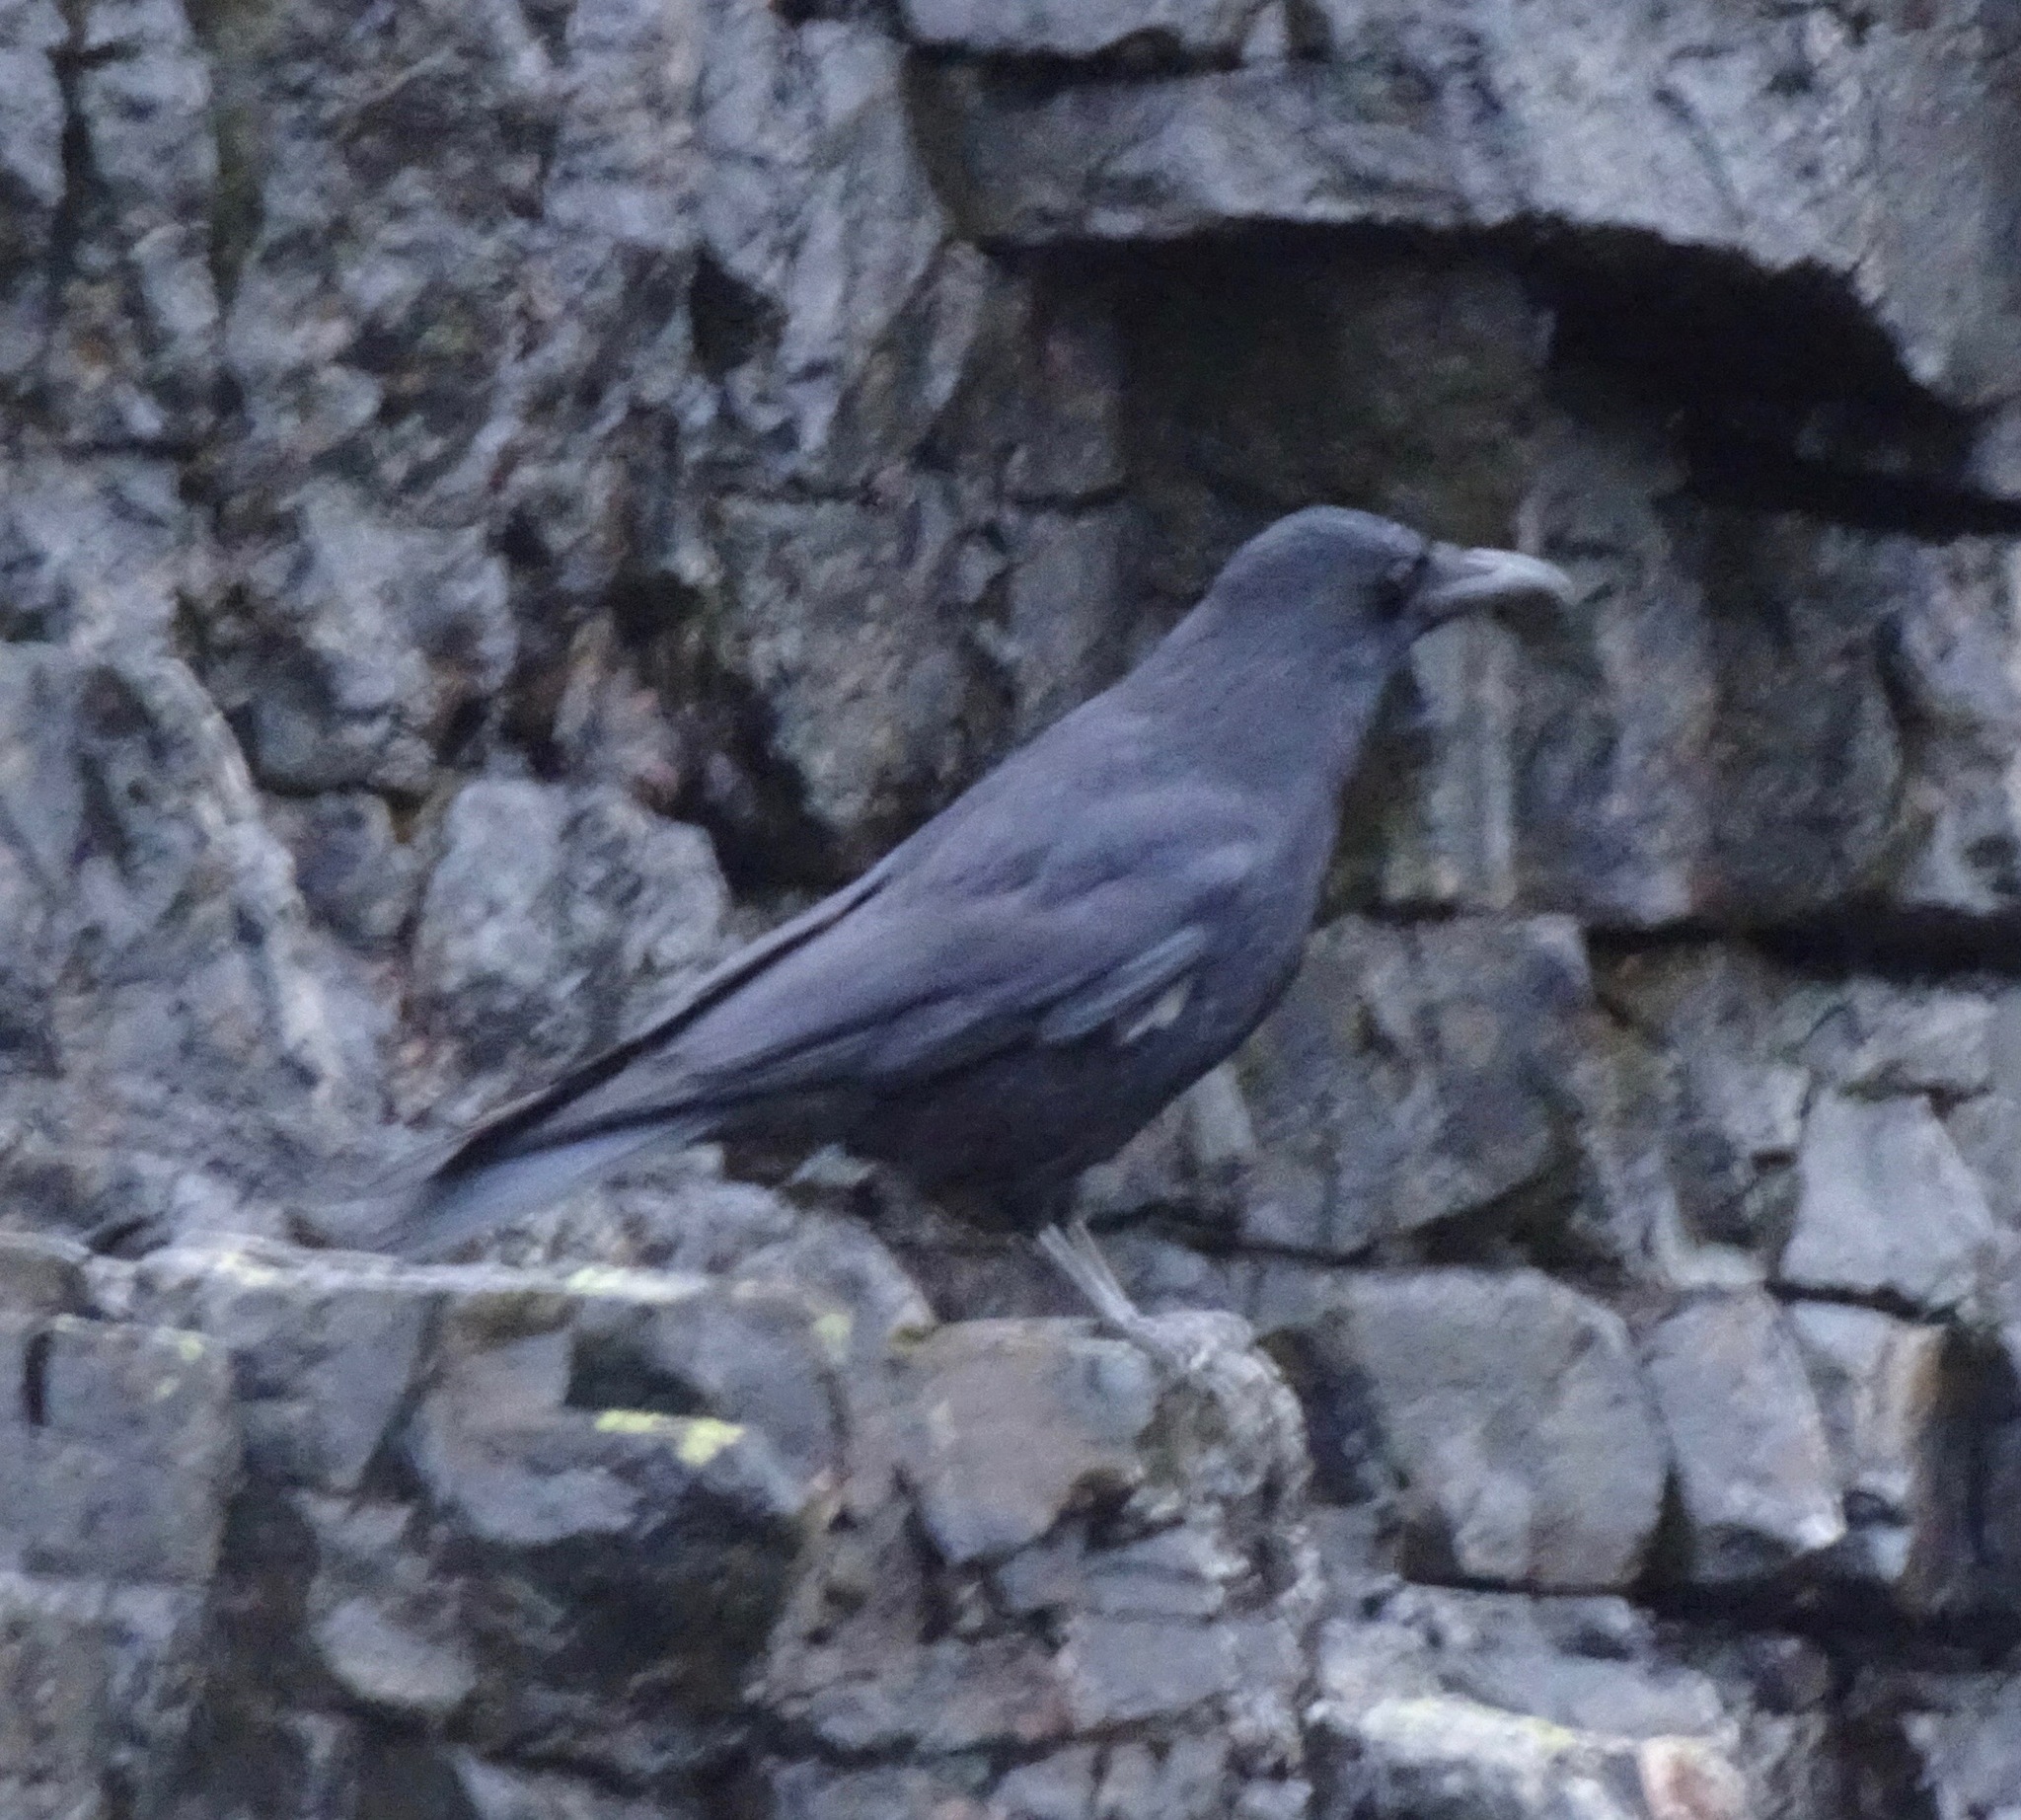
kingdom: Animalia
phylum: Chordata
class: Aves
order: Passeriformes
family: Corvidae
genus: Corvus
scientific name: Corvus corone
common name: Carrion crow
